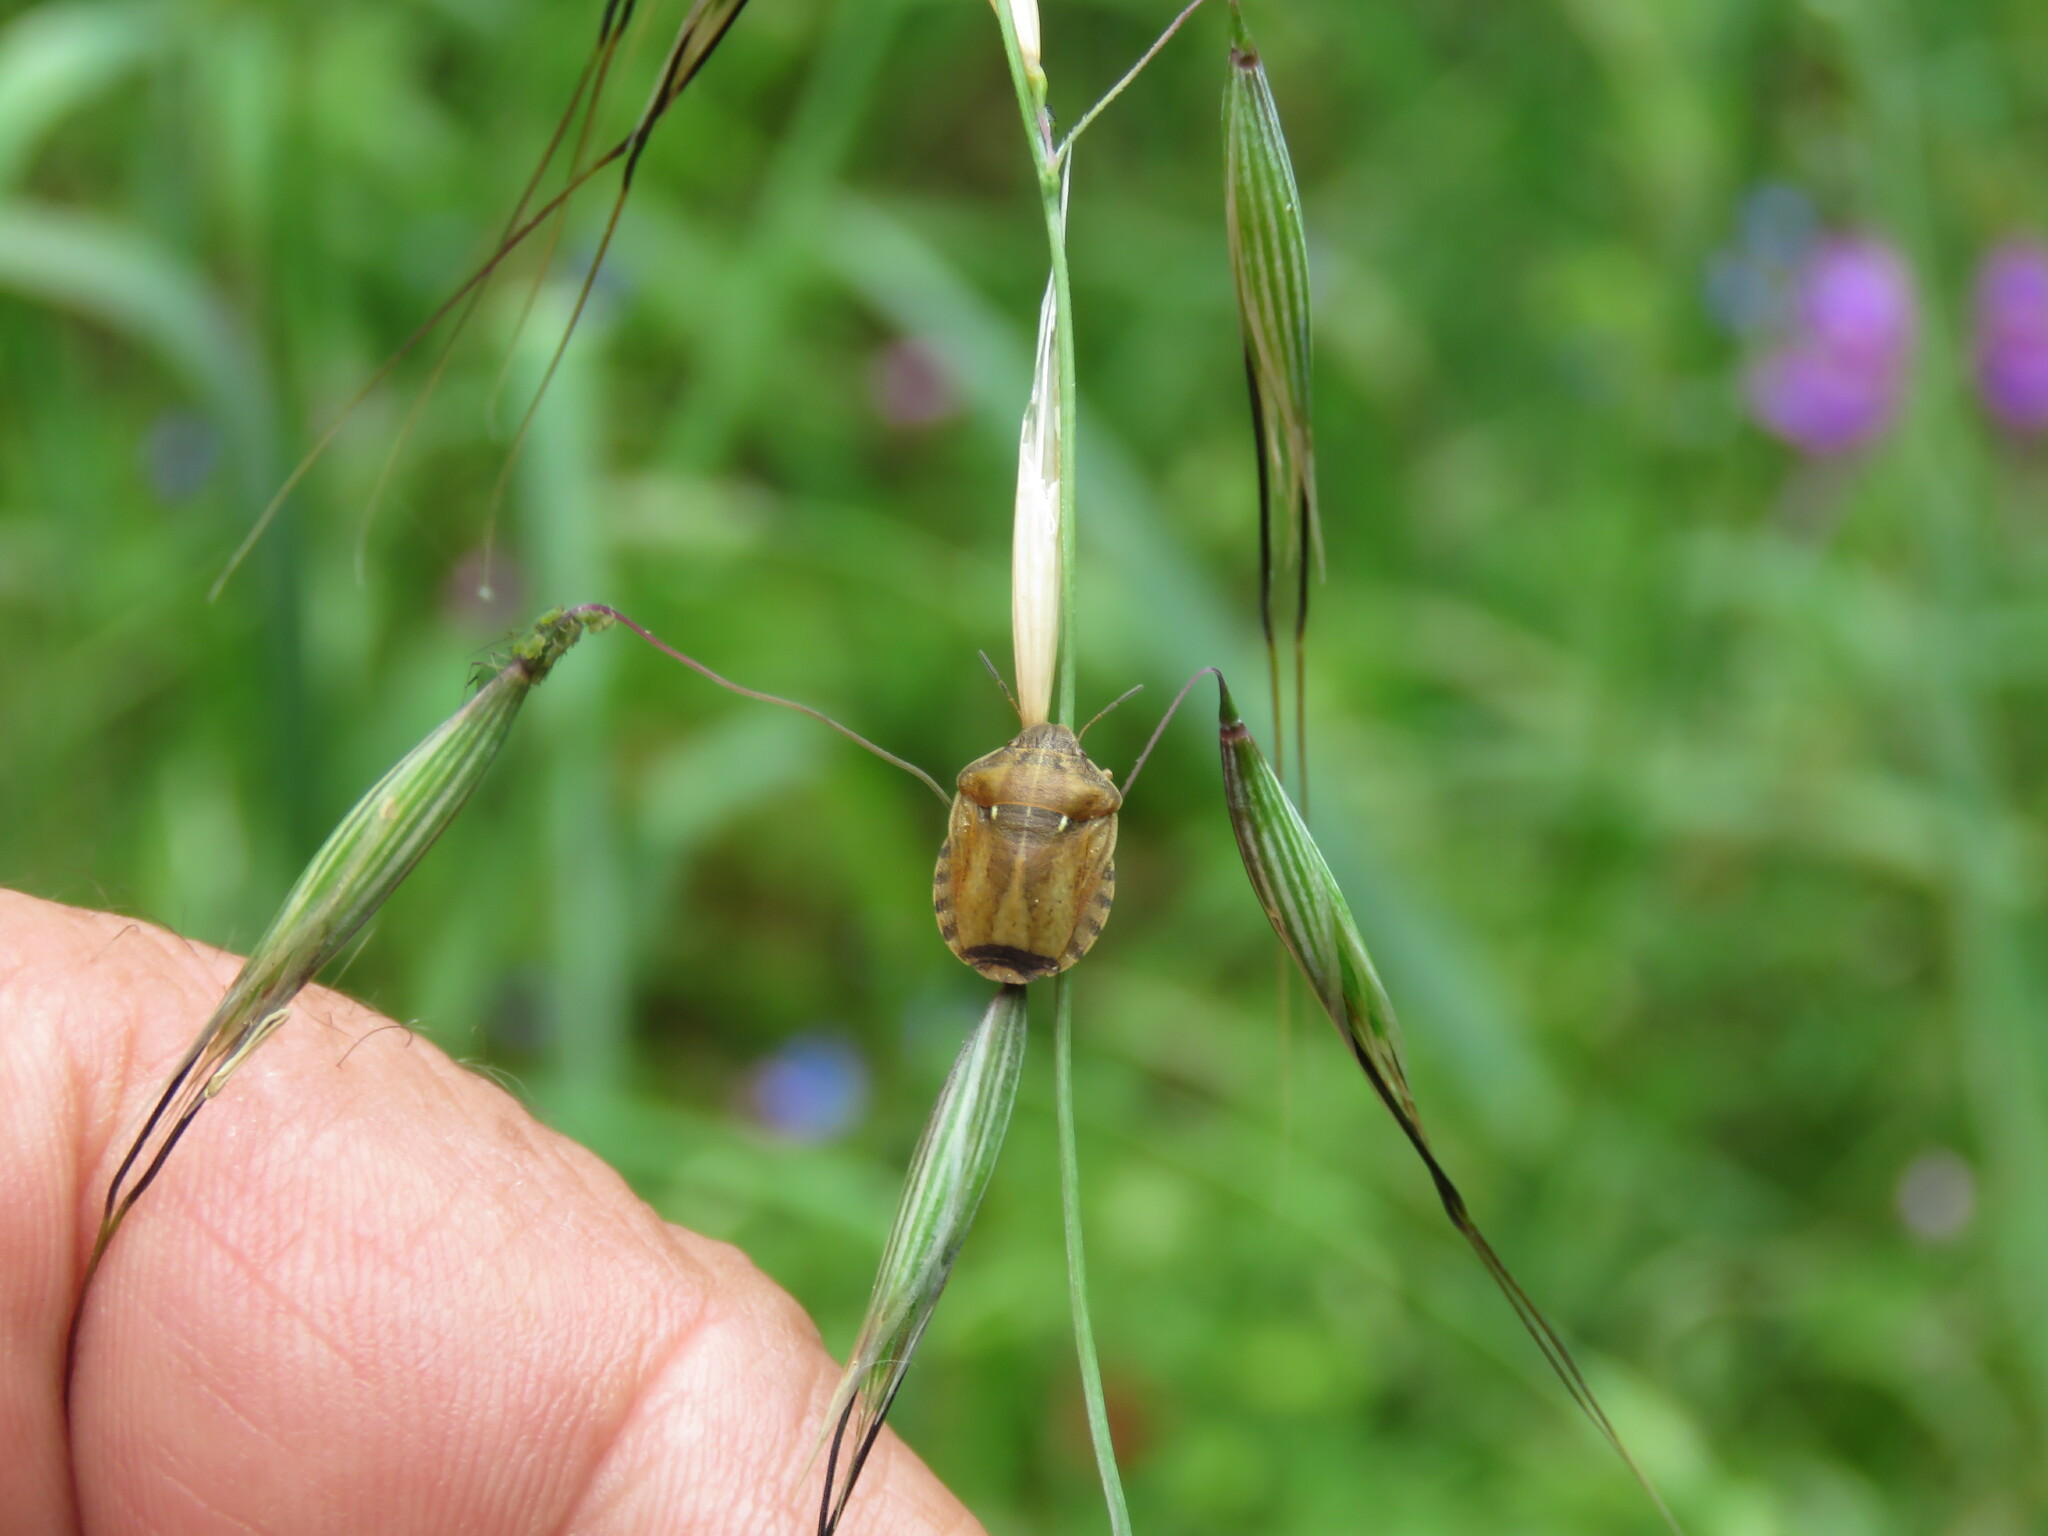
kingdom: Animalia
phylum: Arthropoda
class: Insecta
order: Hemiptera
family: Scutelleridae
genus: Eurygaster
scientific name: Eurygaster testudinaria
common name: Tortoise bug
